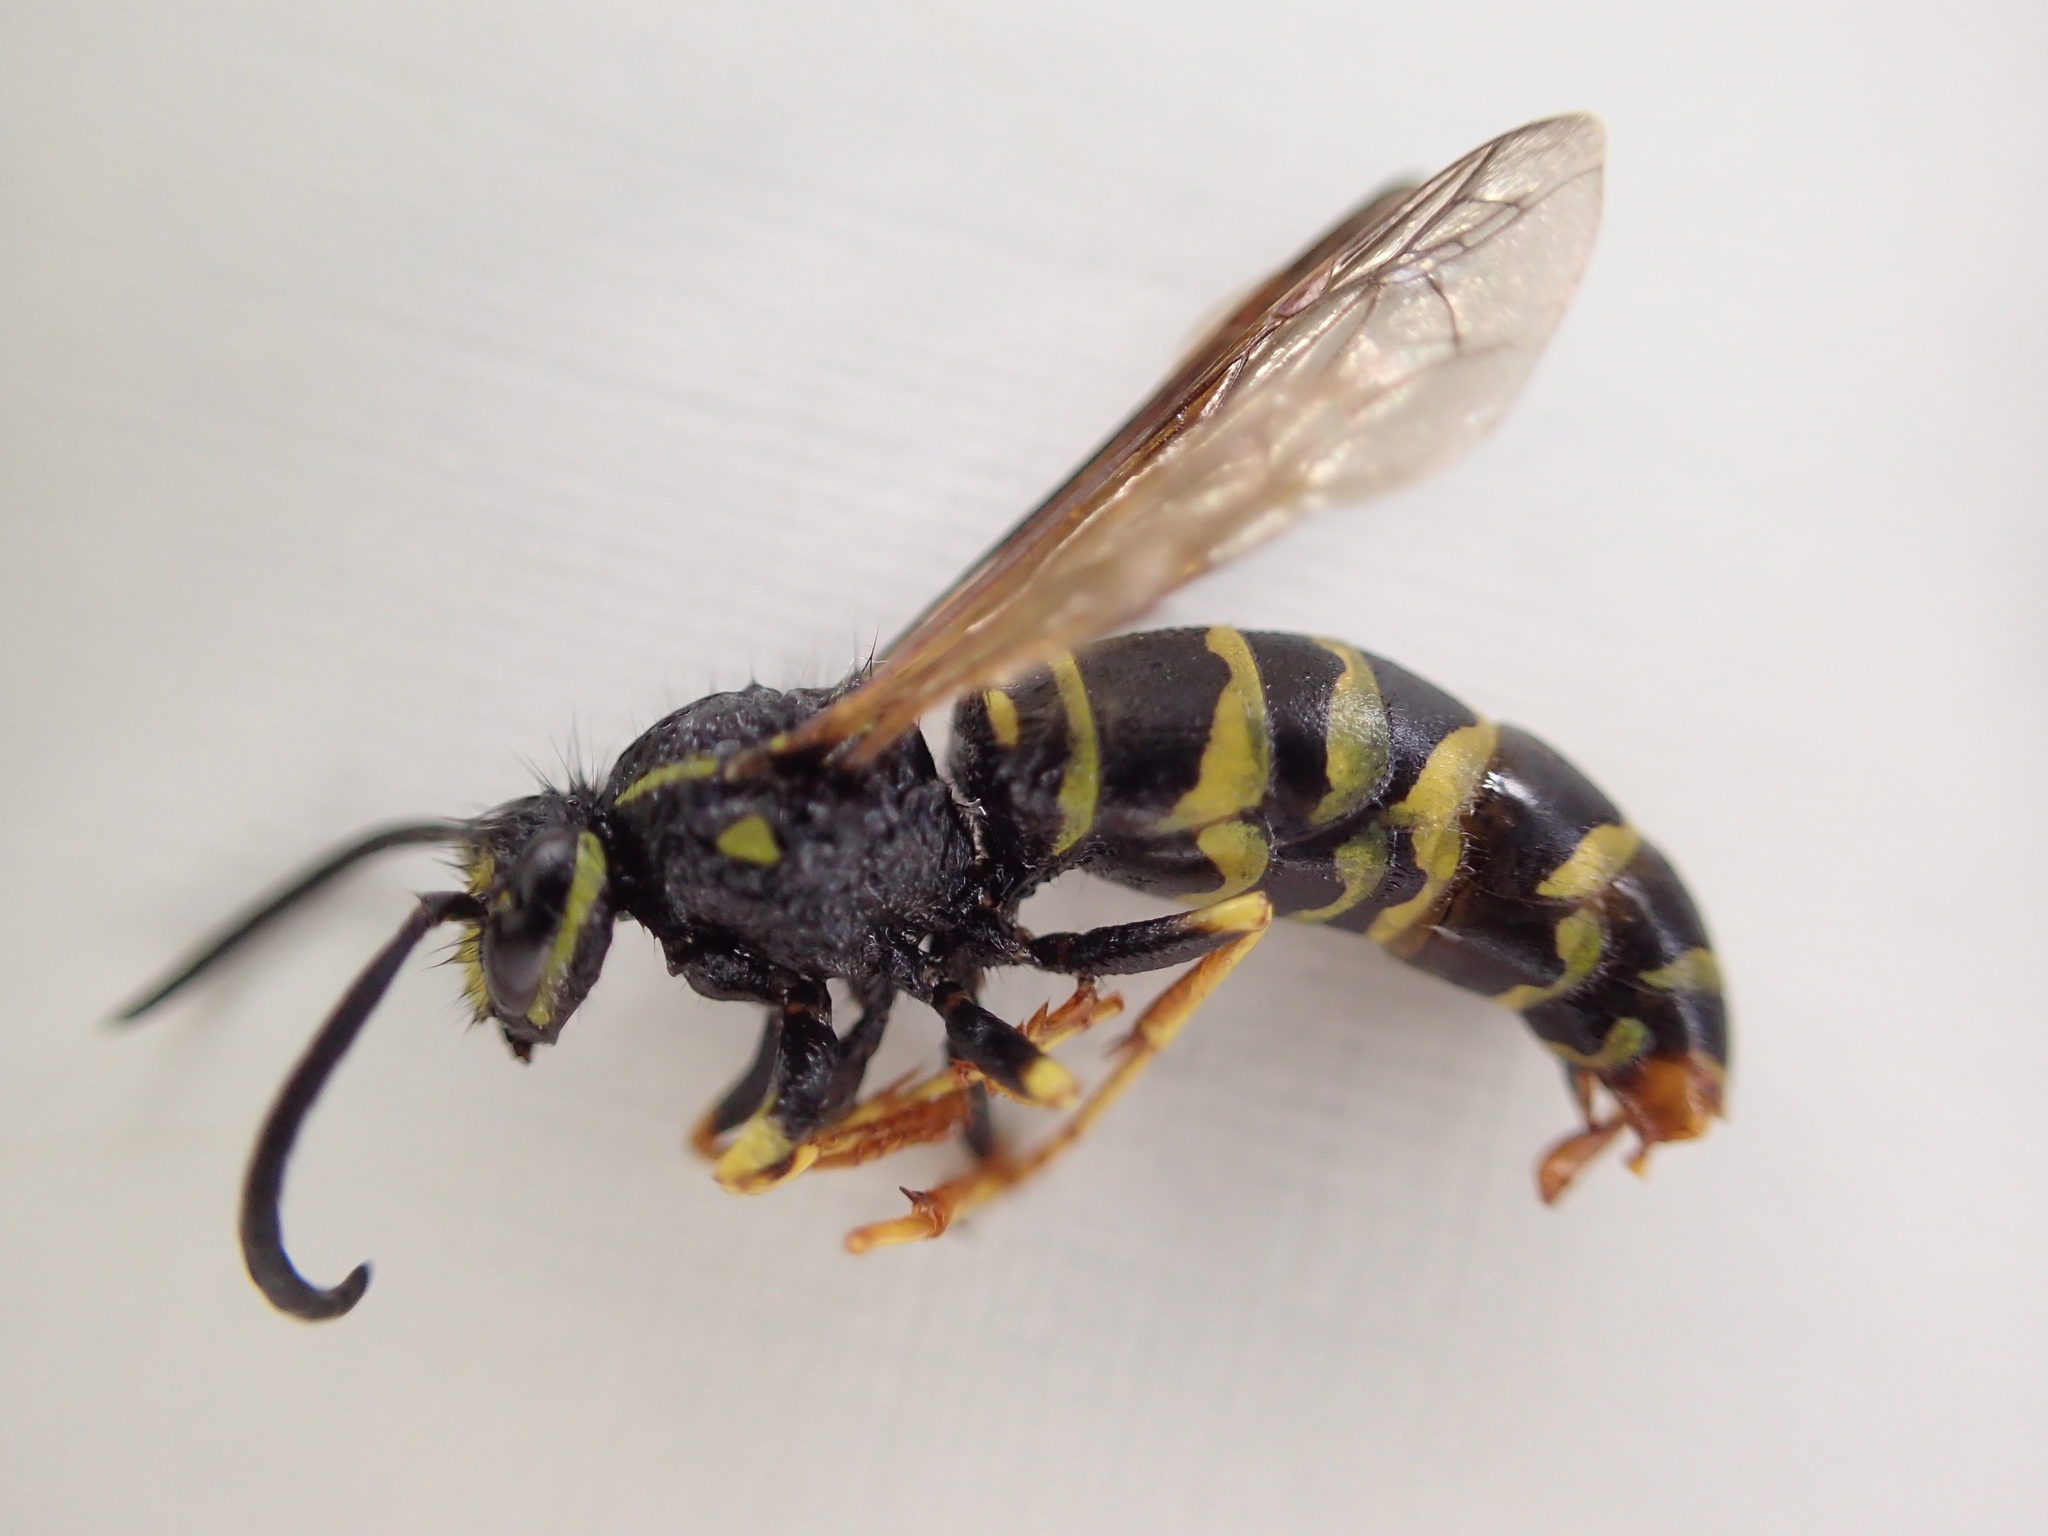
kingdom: Animalia
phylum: Arthropoda
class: Insecta
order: Hymenoptera
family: Vespidae
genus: Vespula
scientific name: Vespula acadica
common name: Forest yellowjacket
